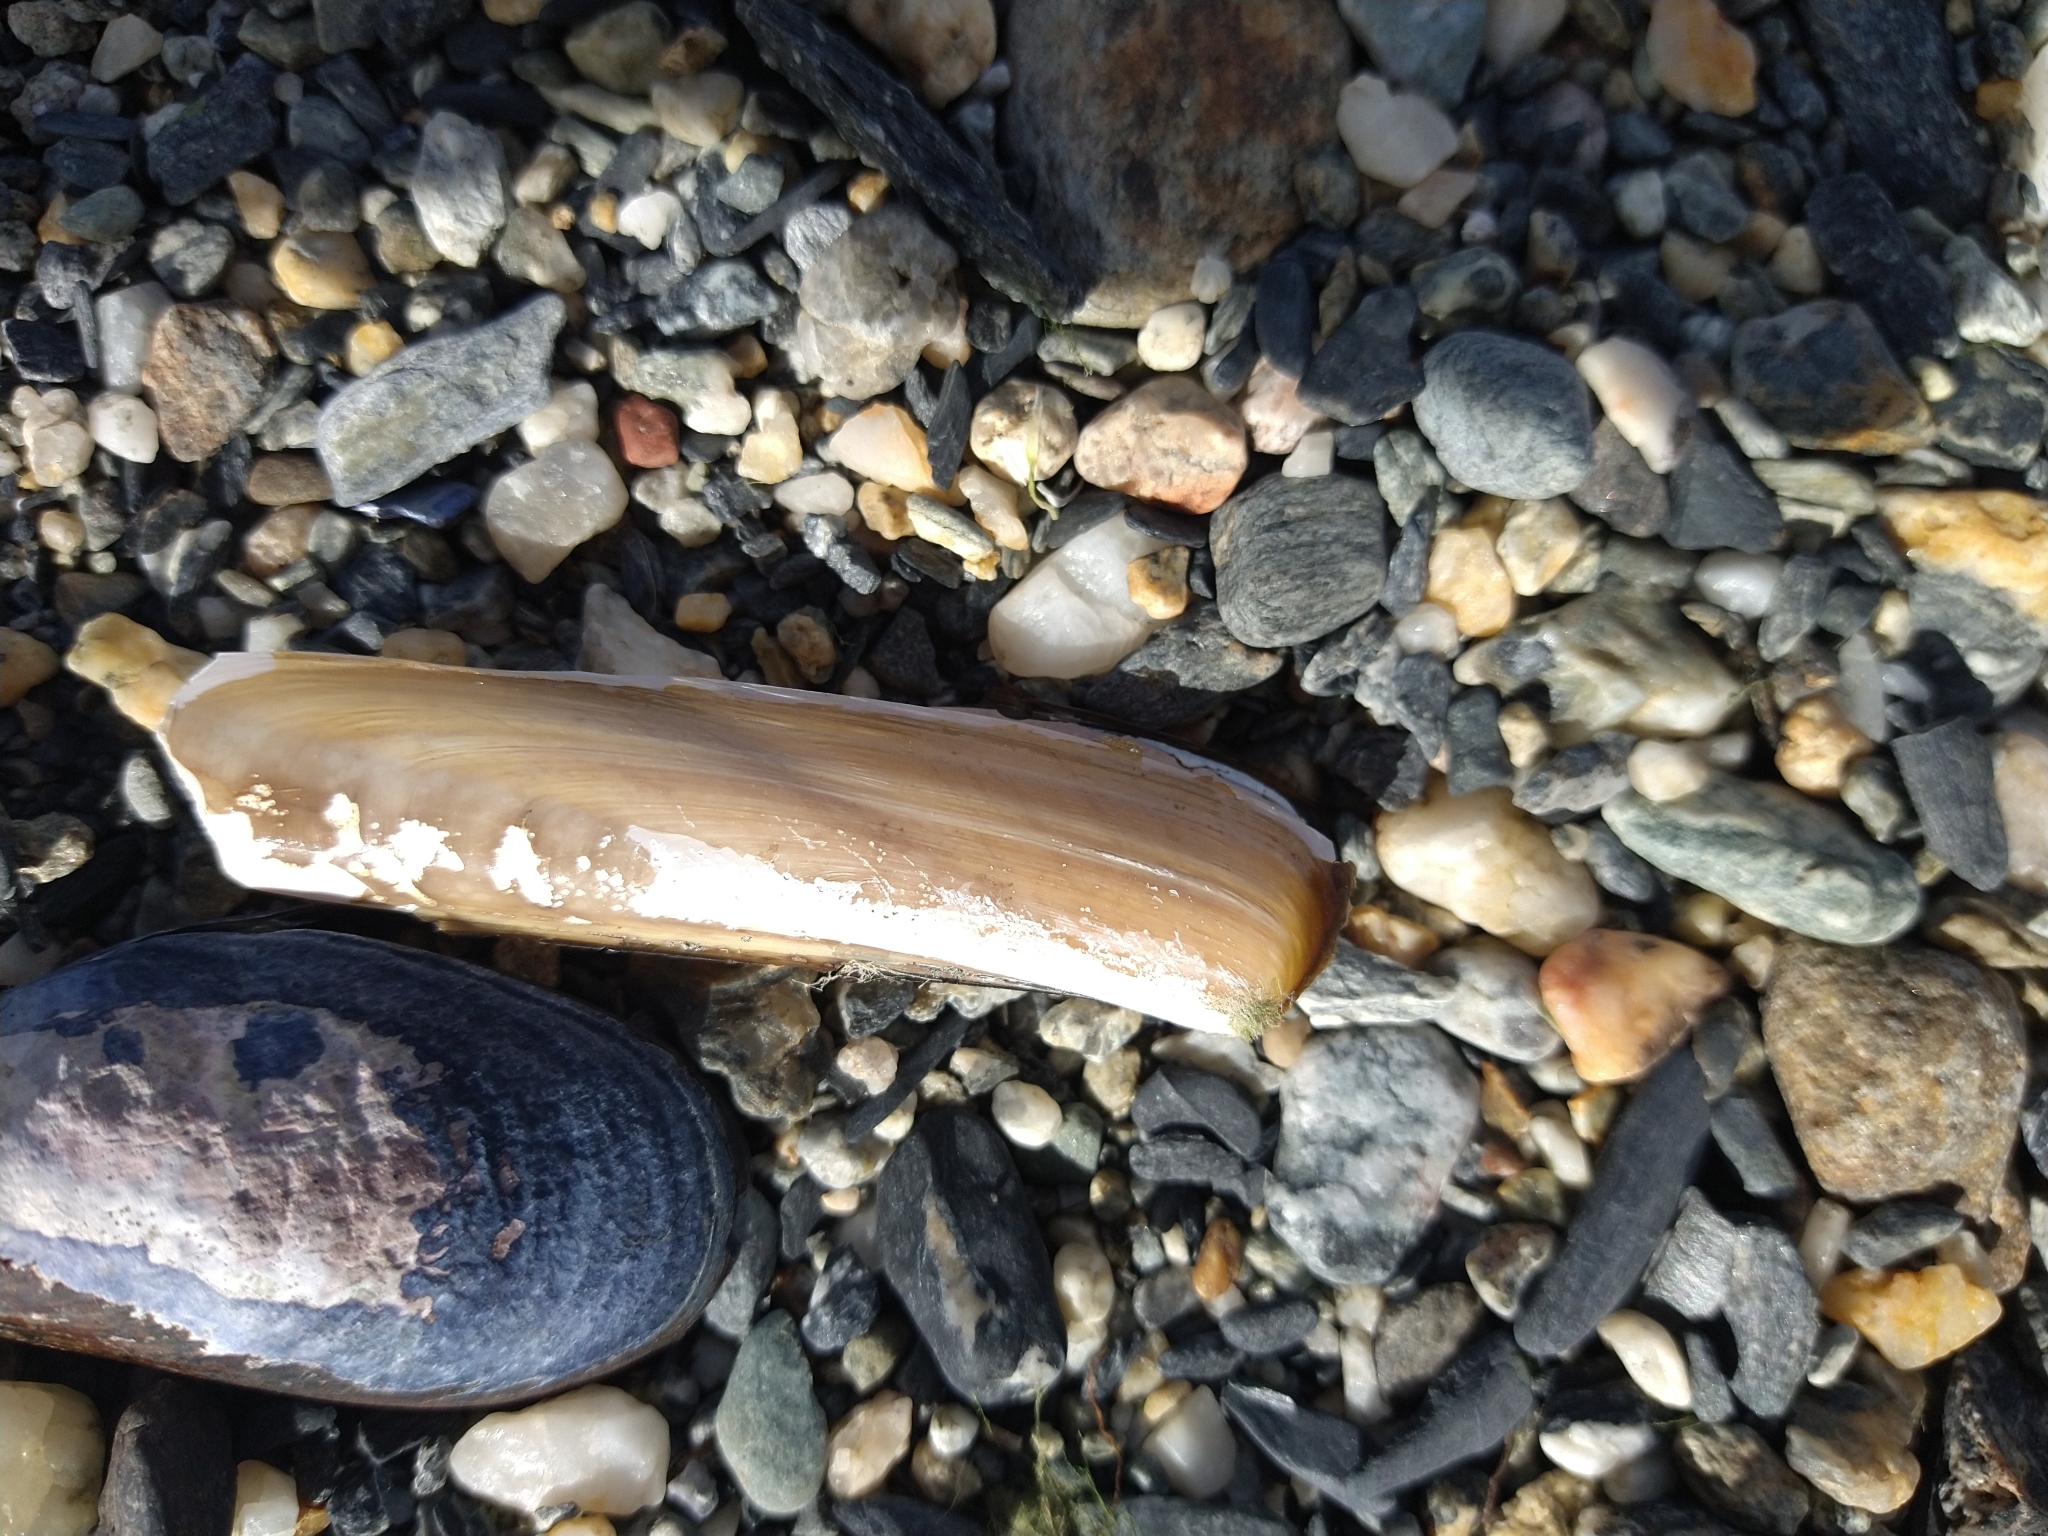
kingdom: Animalia
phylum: Mollusca
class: Bivalvia
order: Adapedonta
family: Pharidae
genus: Ensis
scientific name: Ensis macha
